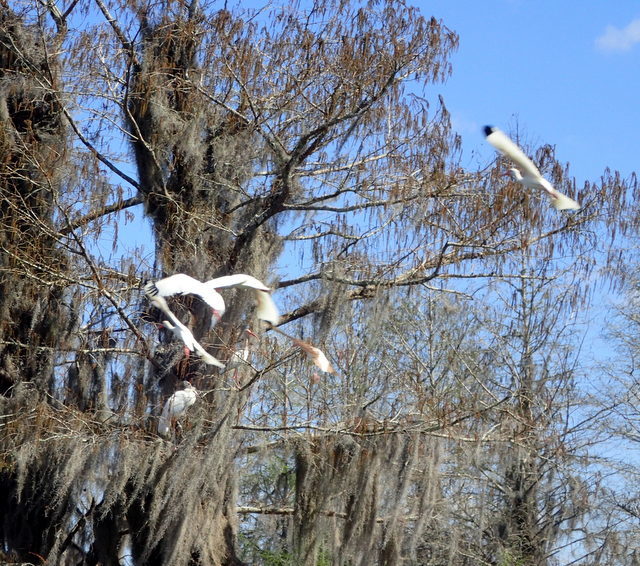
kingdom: Animalia
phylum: Chordata
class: Aves
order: Pelecaniformes
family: Threskiornithidae
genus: Eudocimus
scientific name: Eudocimus albus
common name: White ibis
